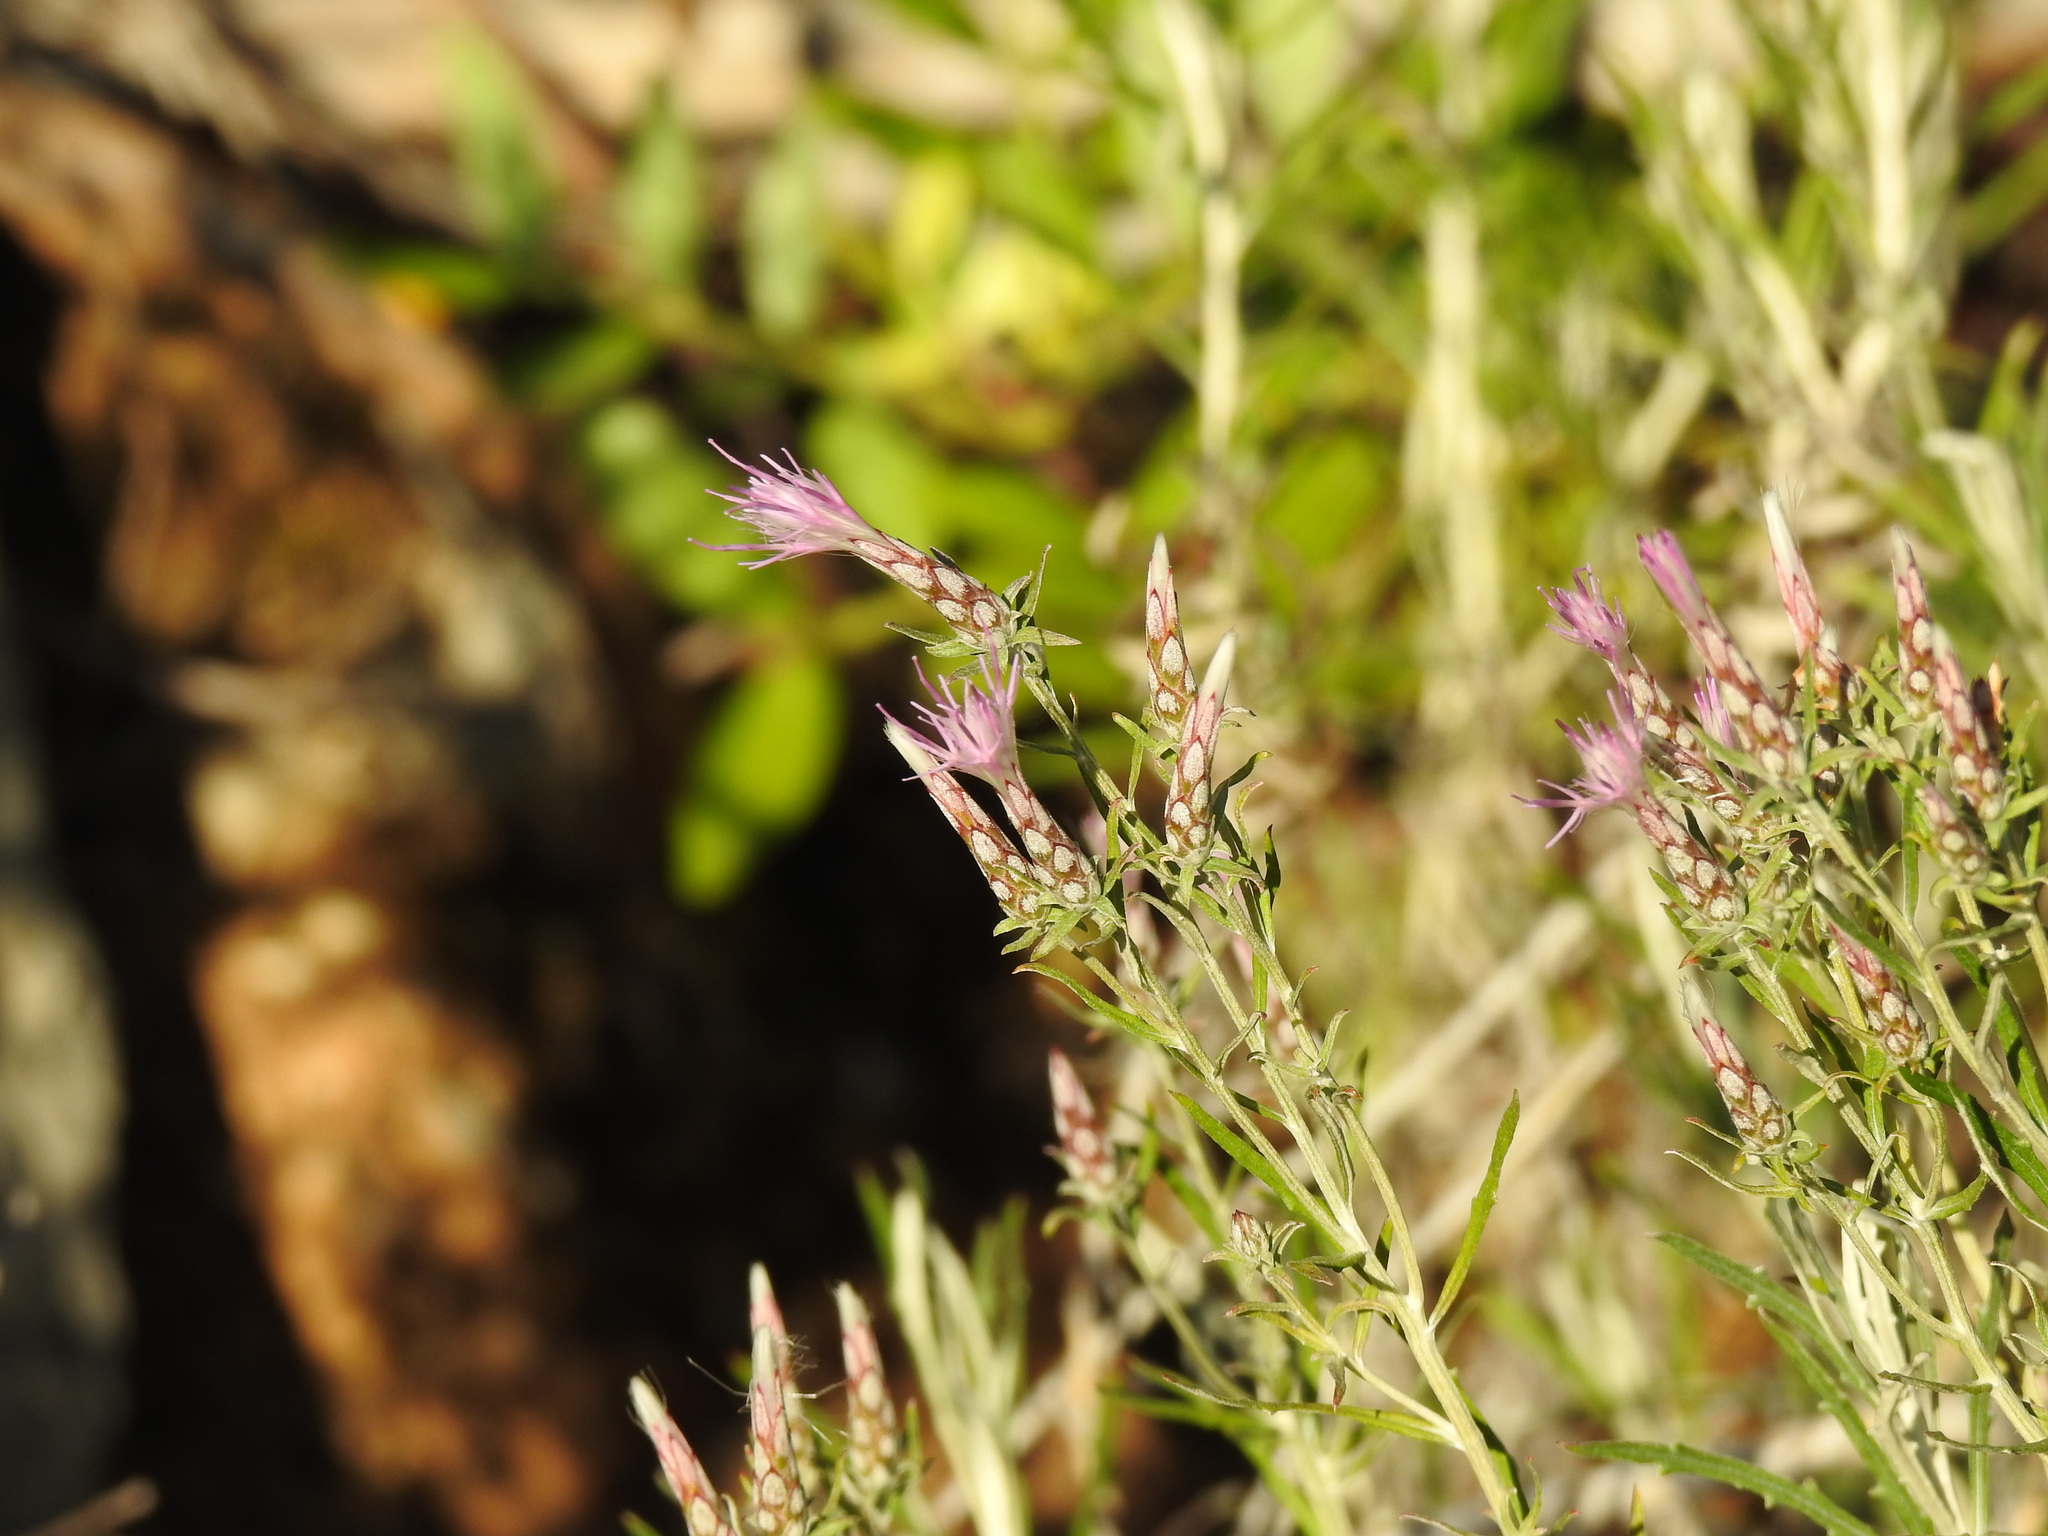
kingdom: Plantae
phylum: Tracheophyta
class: Magnoliopsida
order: Asterales
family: Asteraceae
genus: Staehelina
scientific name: Staehelina dubia
